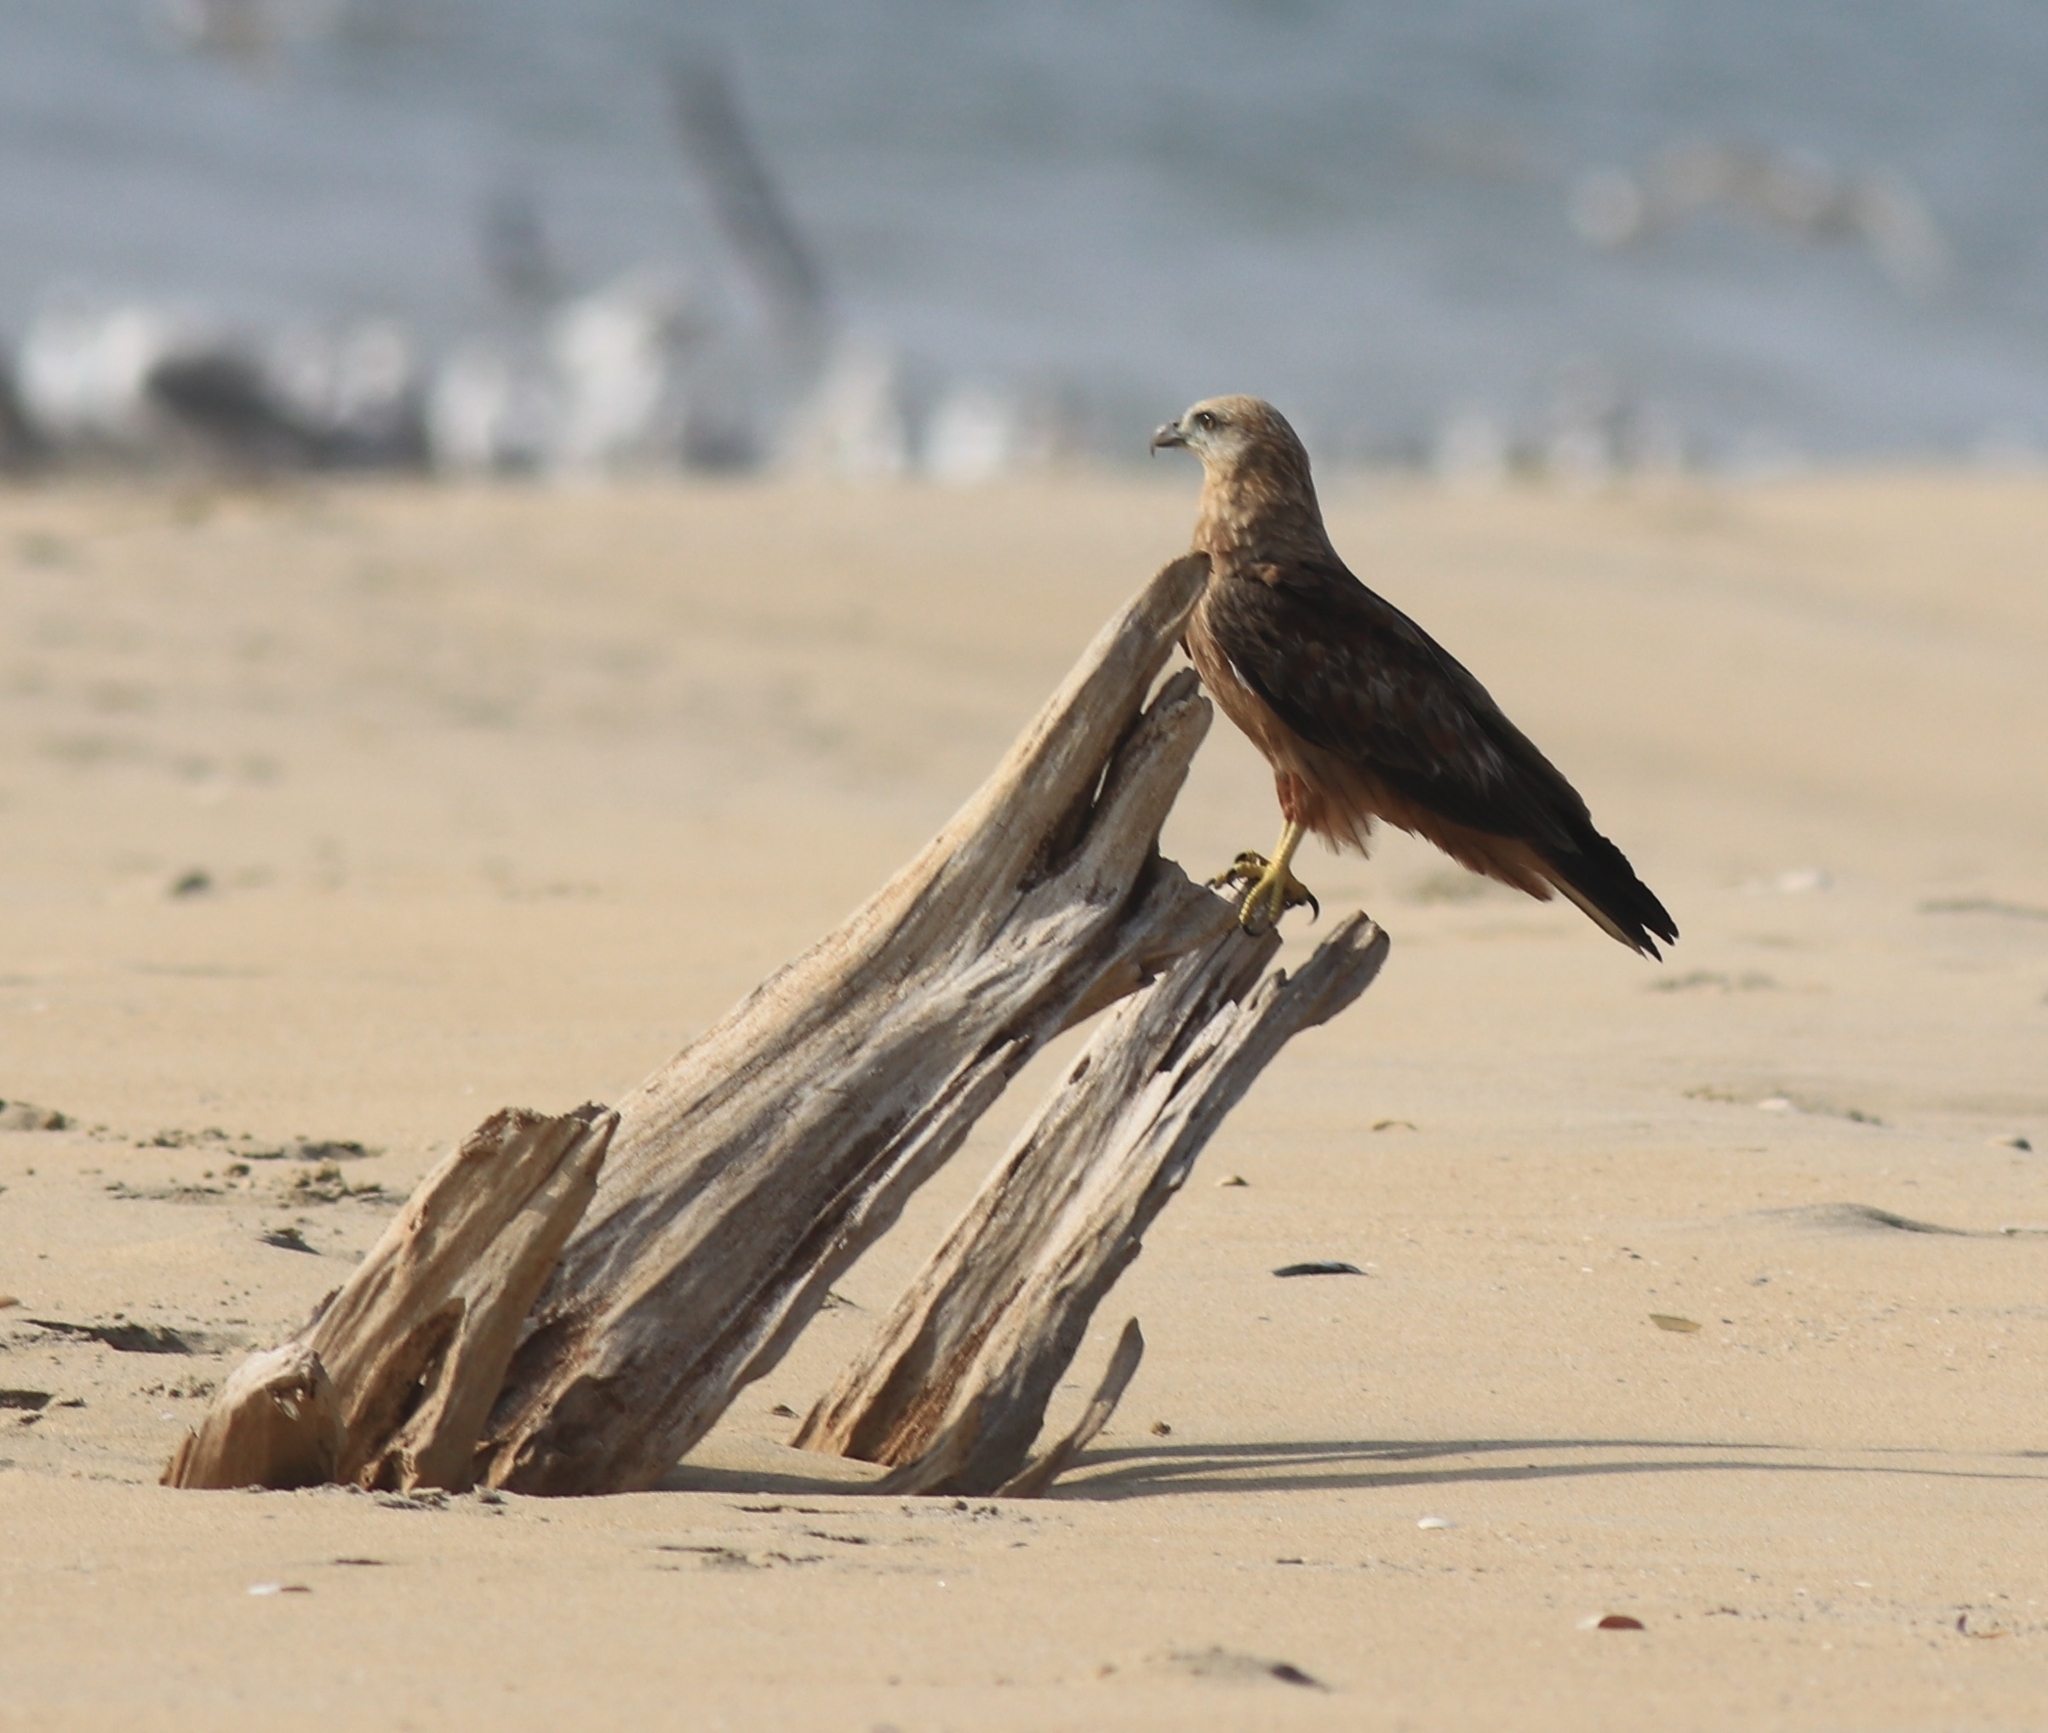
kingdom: Animalia
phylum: Chordata
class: Aves
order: Accipitriformes
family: Accipitridae
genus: Milvus
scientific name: Milvus migrans
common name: Black kite
